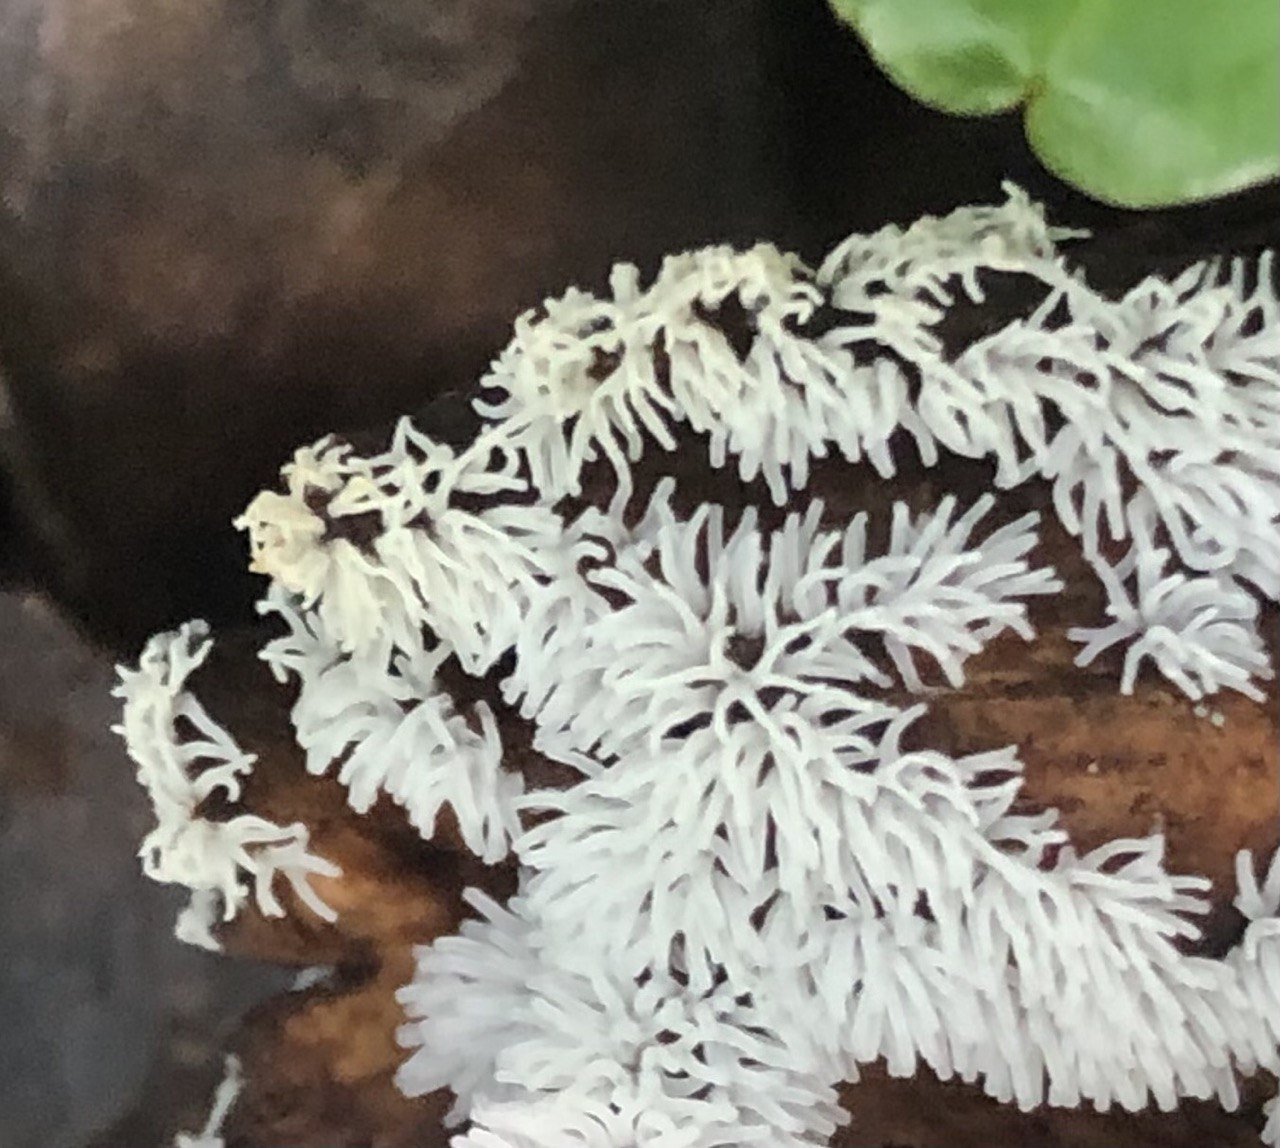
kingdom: Protozoa
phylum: Mycetozoa
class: Protosteliomycetes
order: Ceratiomyxales
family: Ceratiomyxaceae
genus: Ceratiomyxa
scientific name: Ceratiomyxa fruticulosa
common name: Honeycomb coral slime mold
